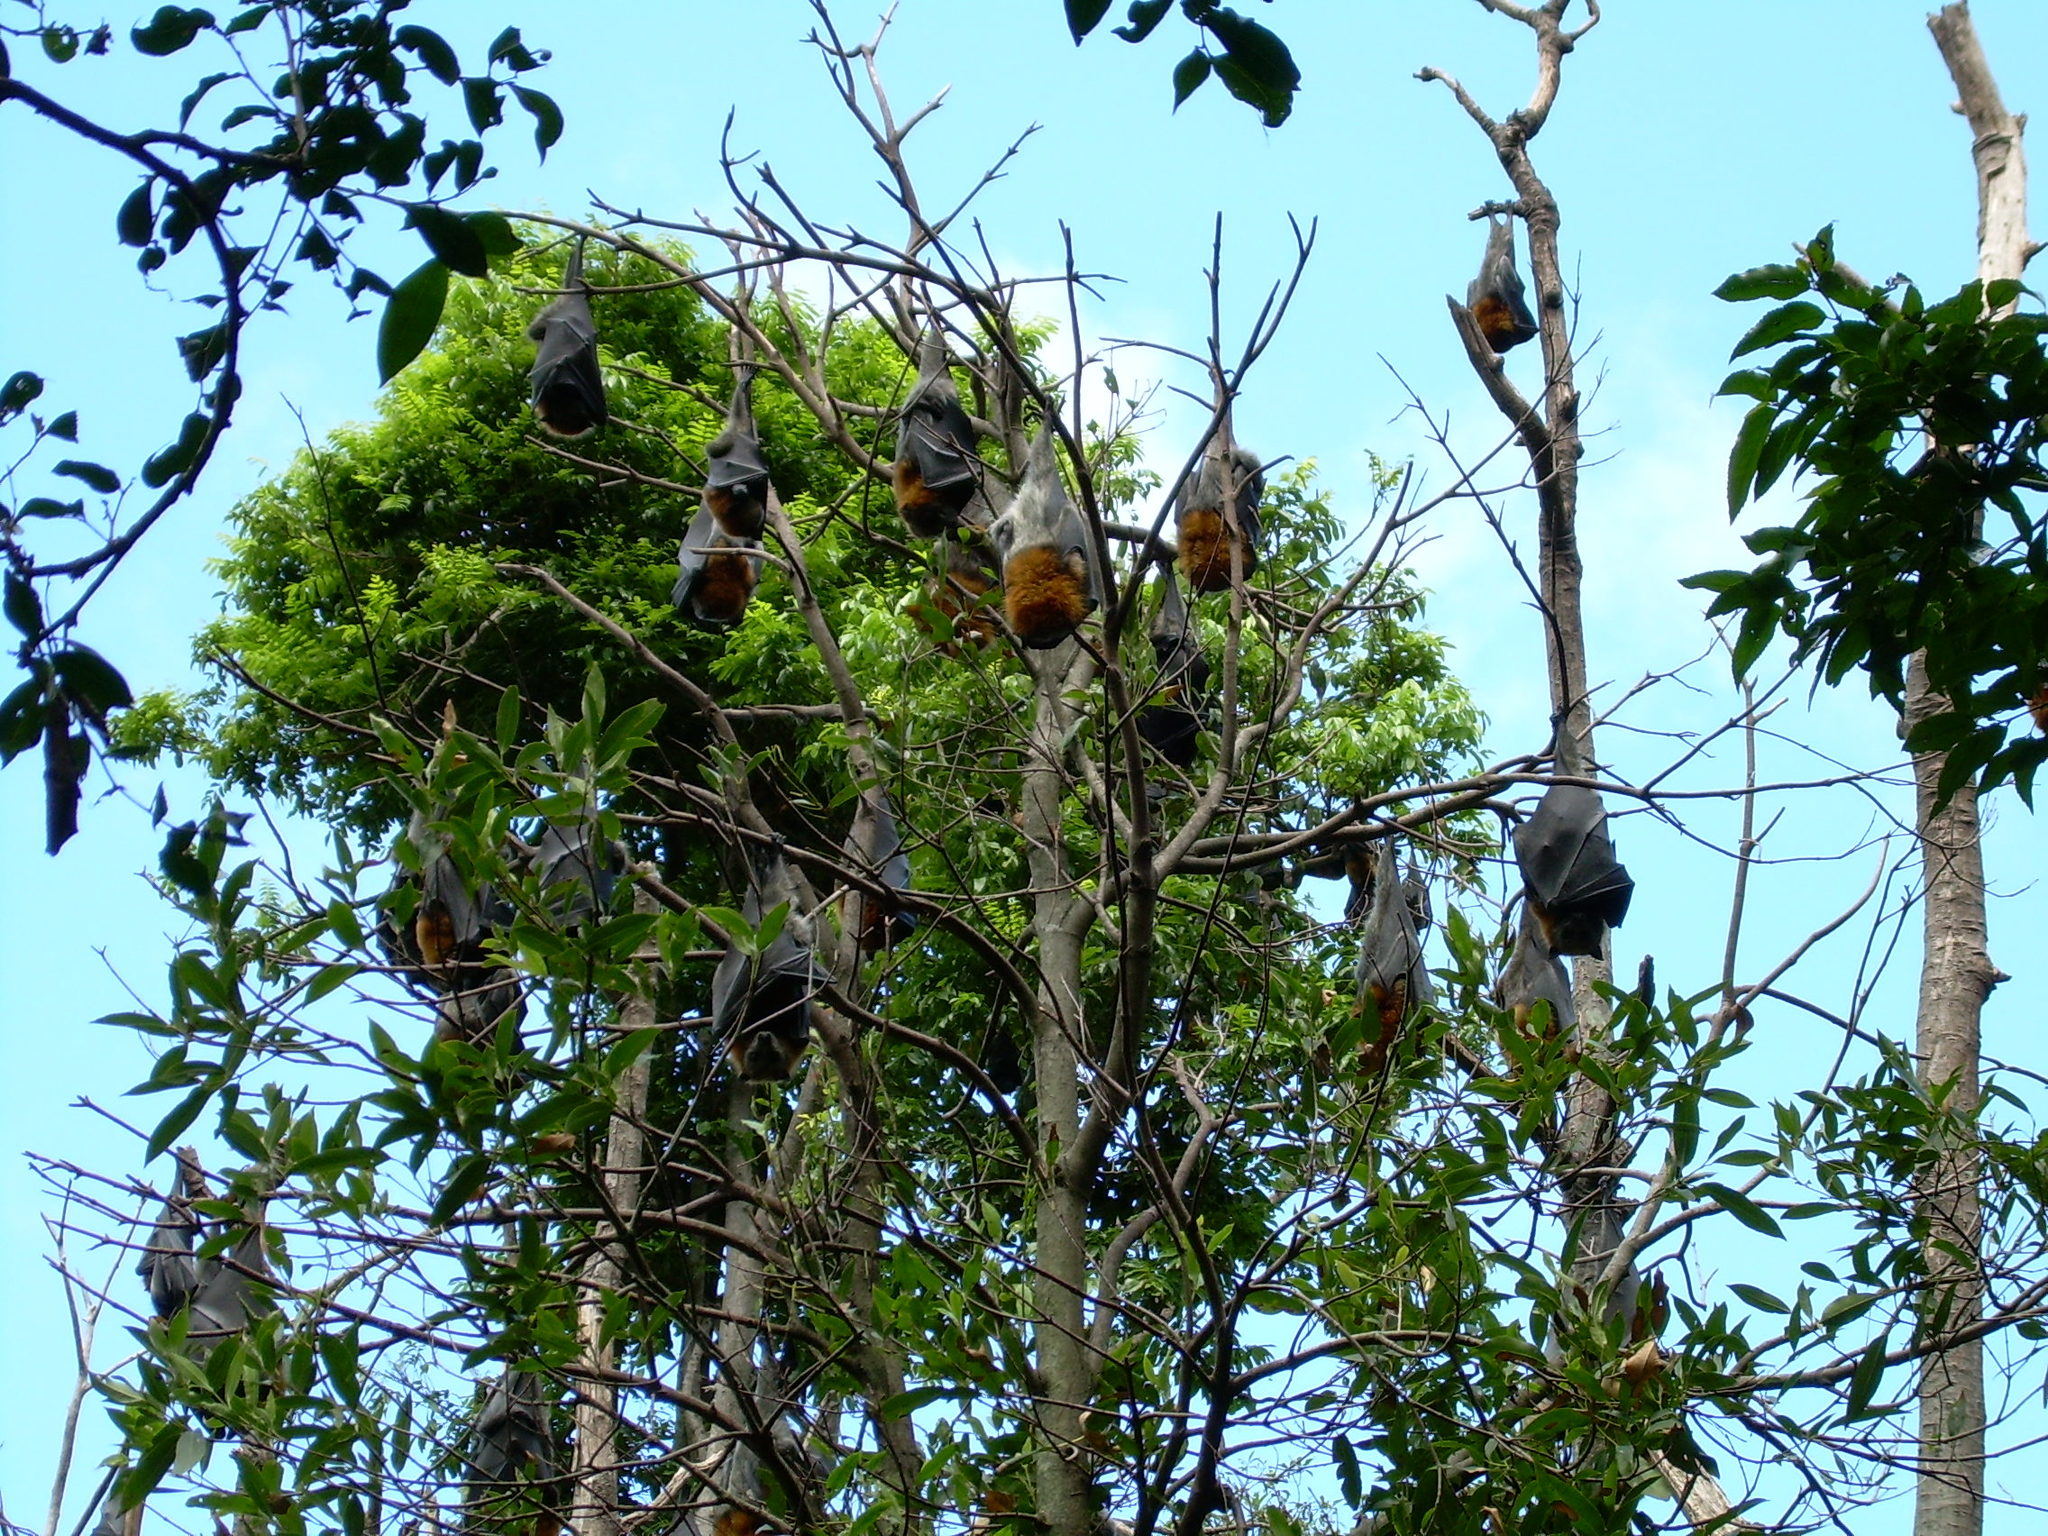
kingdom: Animalia
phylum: Chordata
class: Mammalia
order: Chiroptera
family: Pteropodidae
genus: Pteropus
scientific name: Pteropus poliocephalus
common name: Gray-headed flying fox
